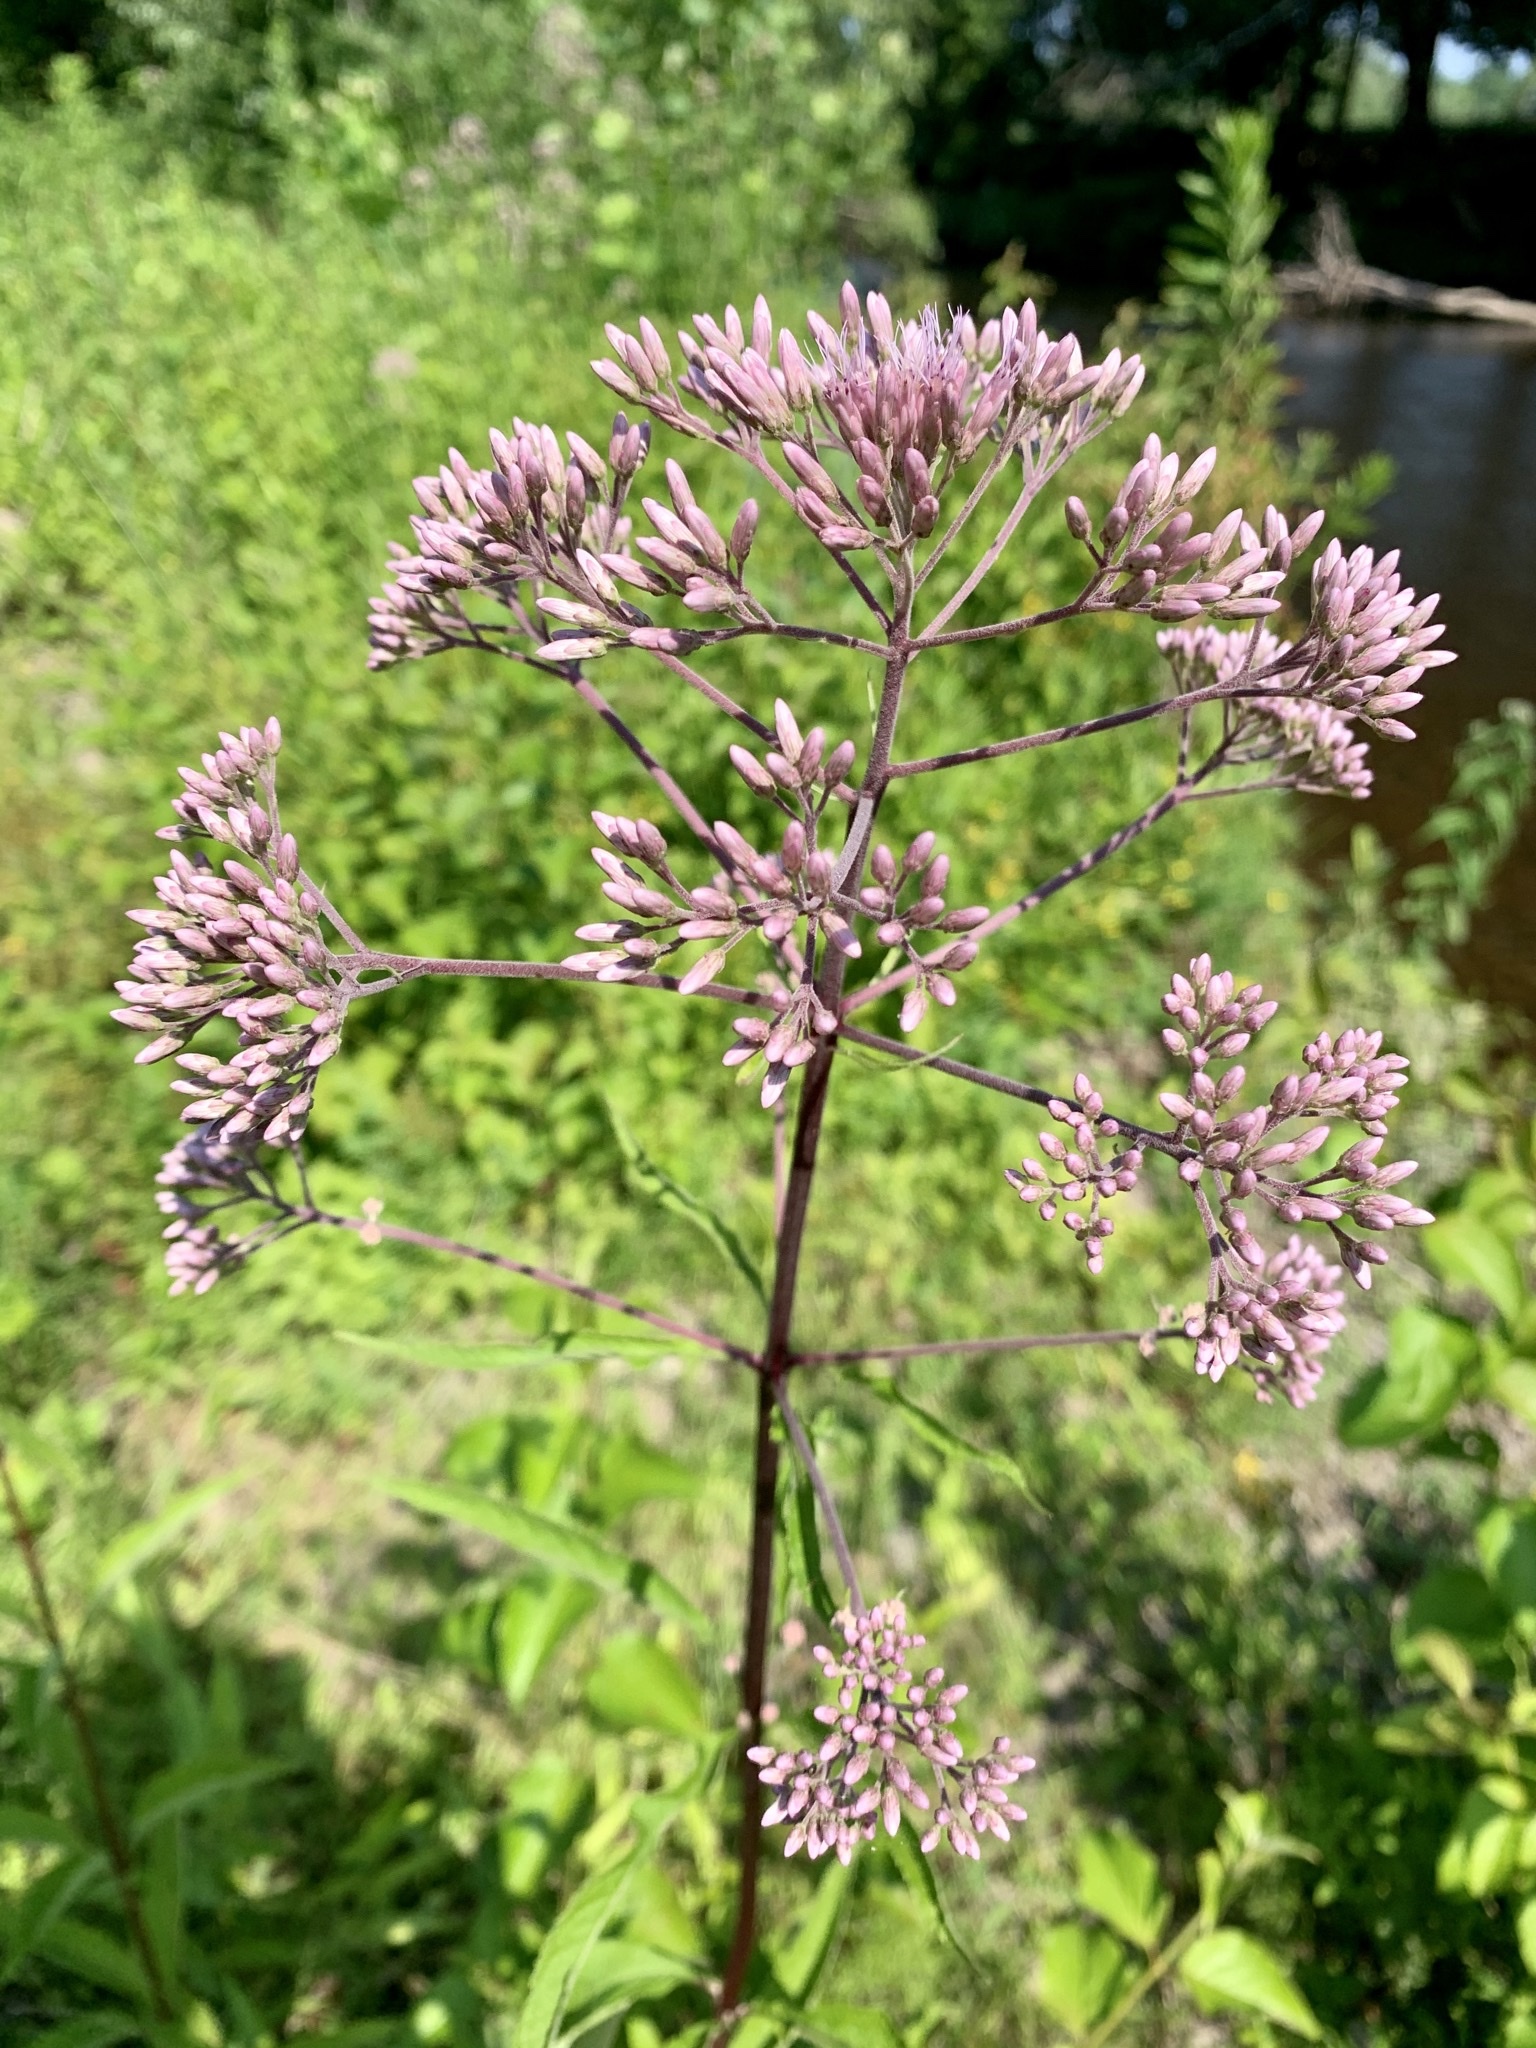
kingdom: Plantae
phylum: Tracheophyta
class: Magnoliopsida
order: Asterales
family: Asteraceae
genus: Eutrochium
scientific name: Eutrochium fistulosum
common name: Trumpetweed
